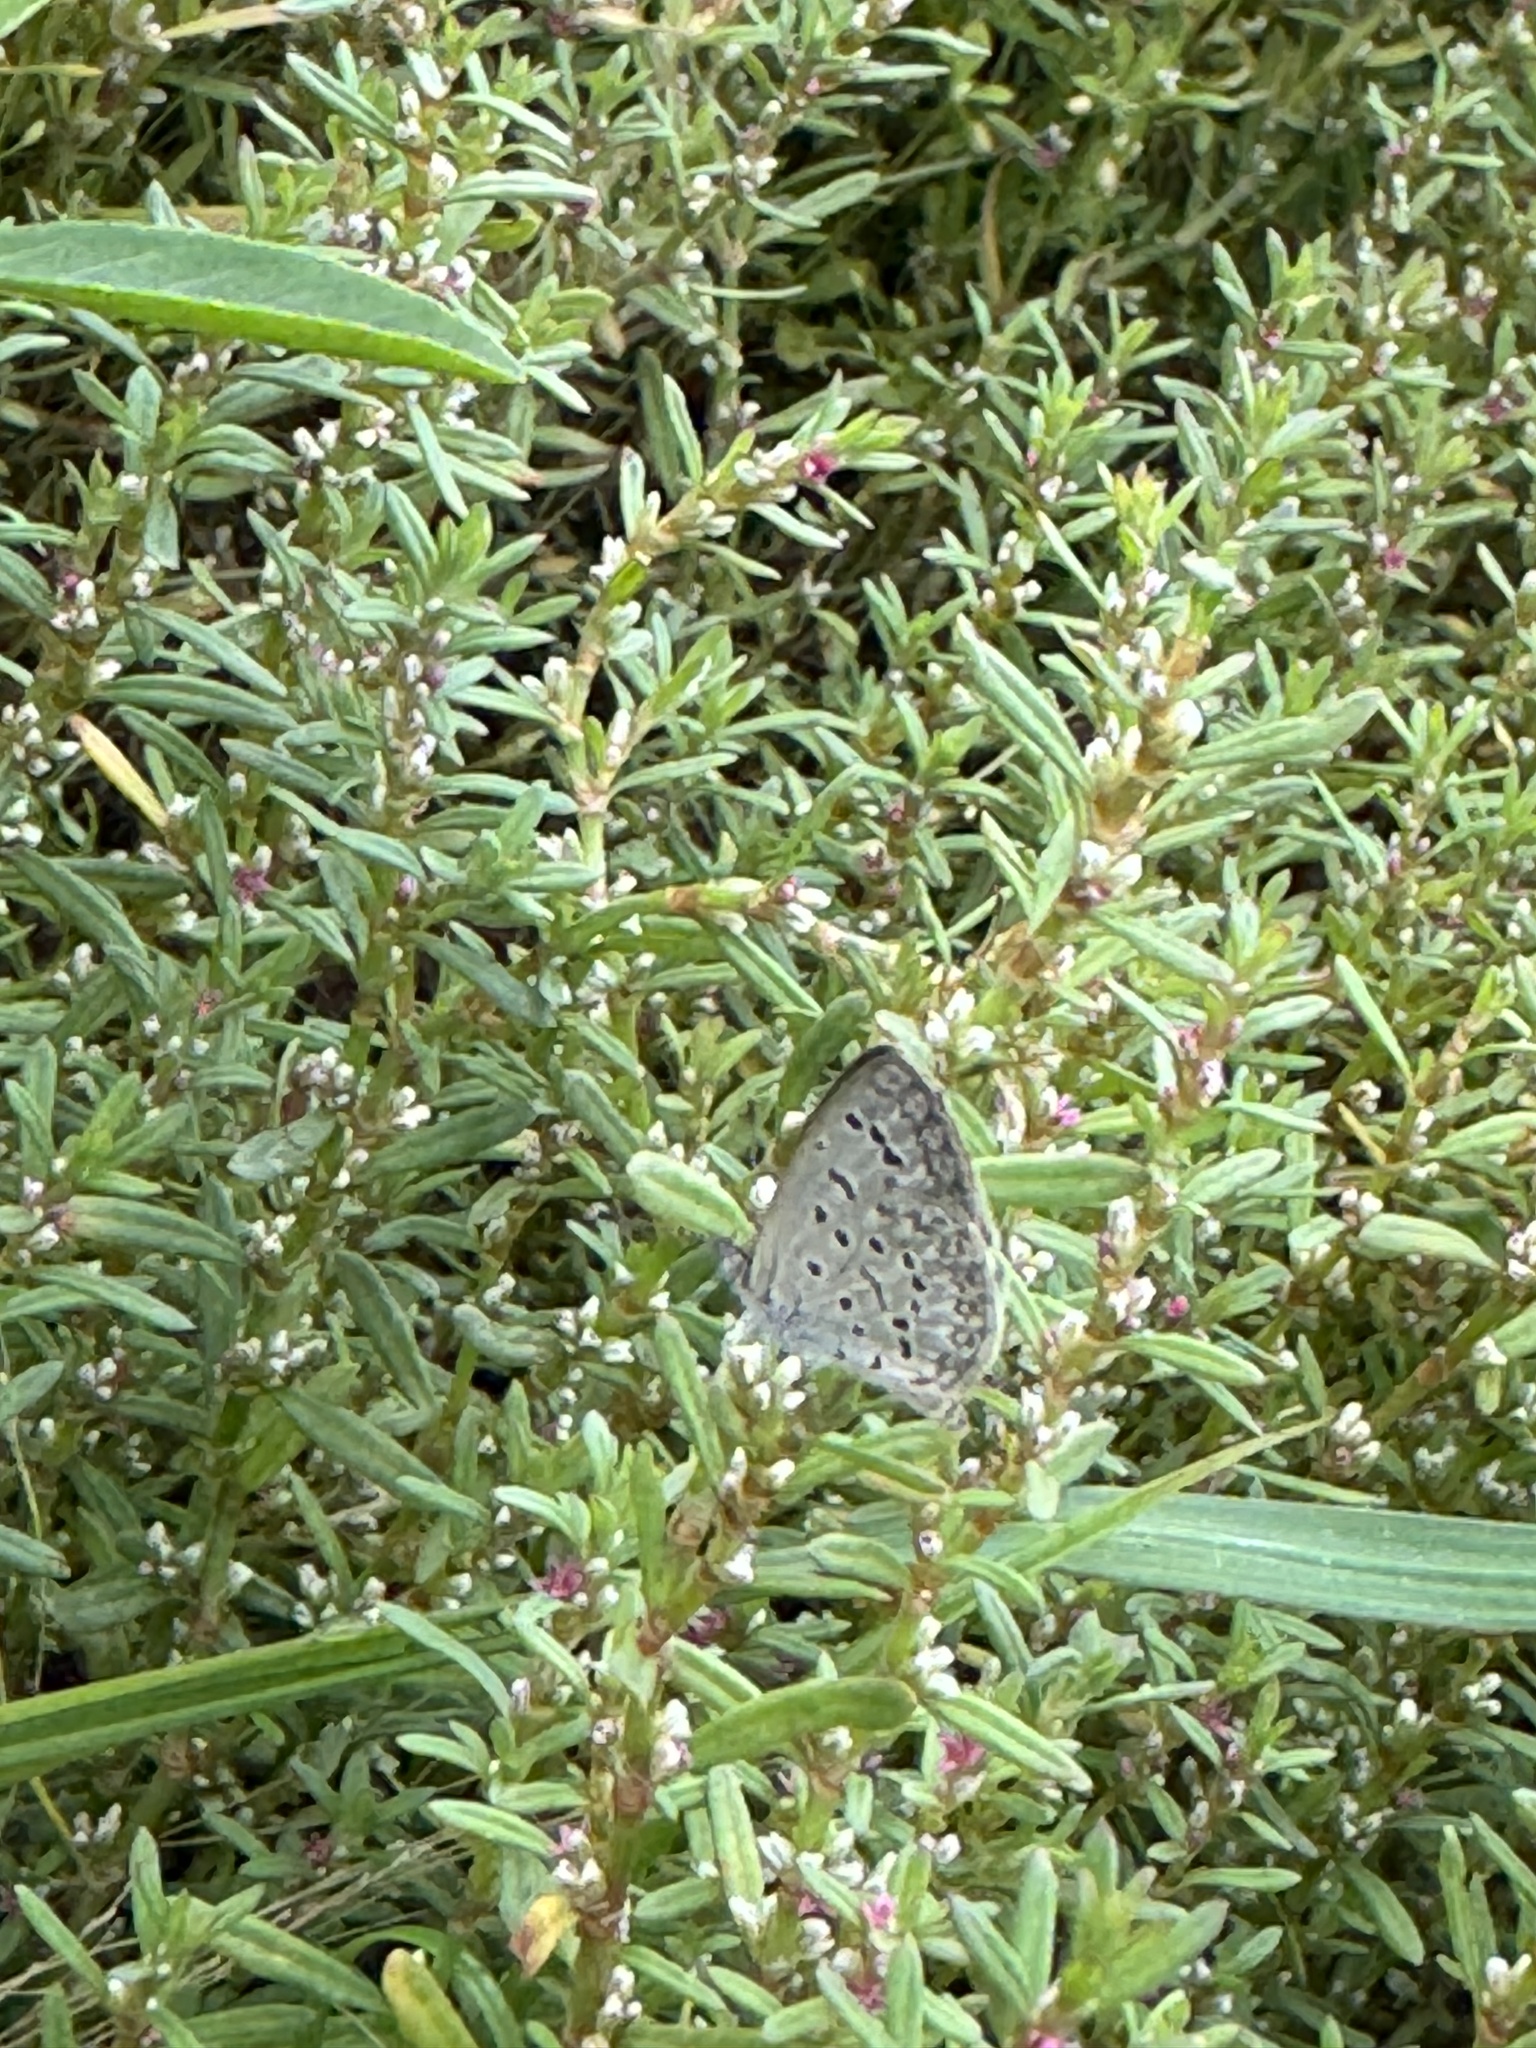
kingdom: Animalia
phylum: Arthropoda
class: Insecta
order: Lepidoptera
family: Lycaenidae
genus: Zizeeria
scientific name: Zizeeria karsandra
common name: Dark grass blue
